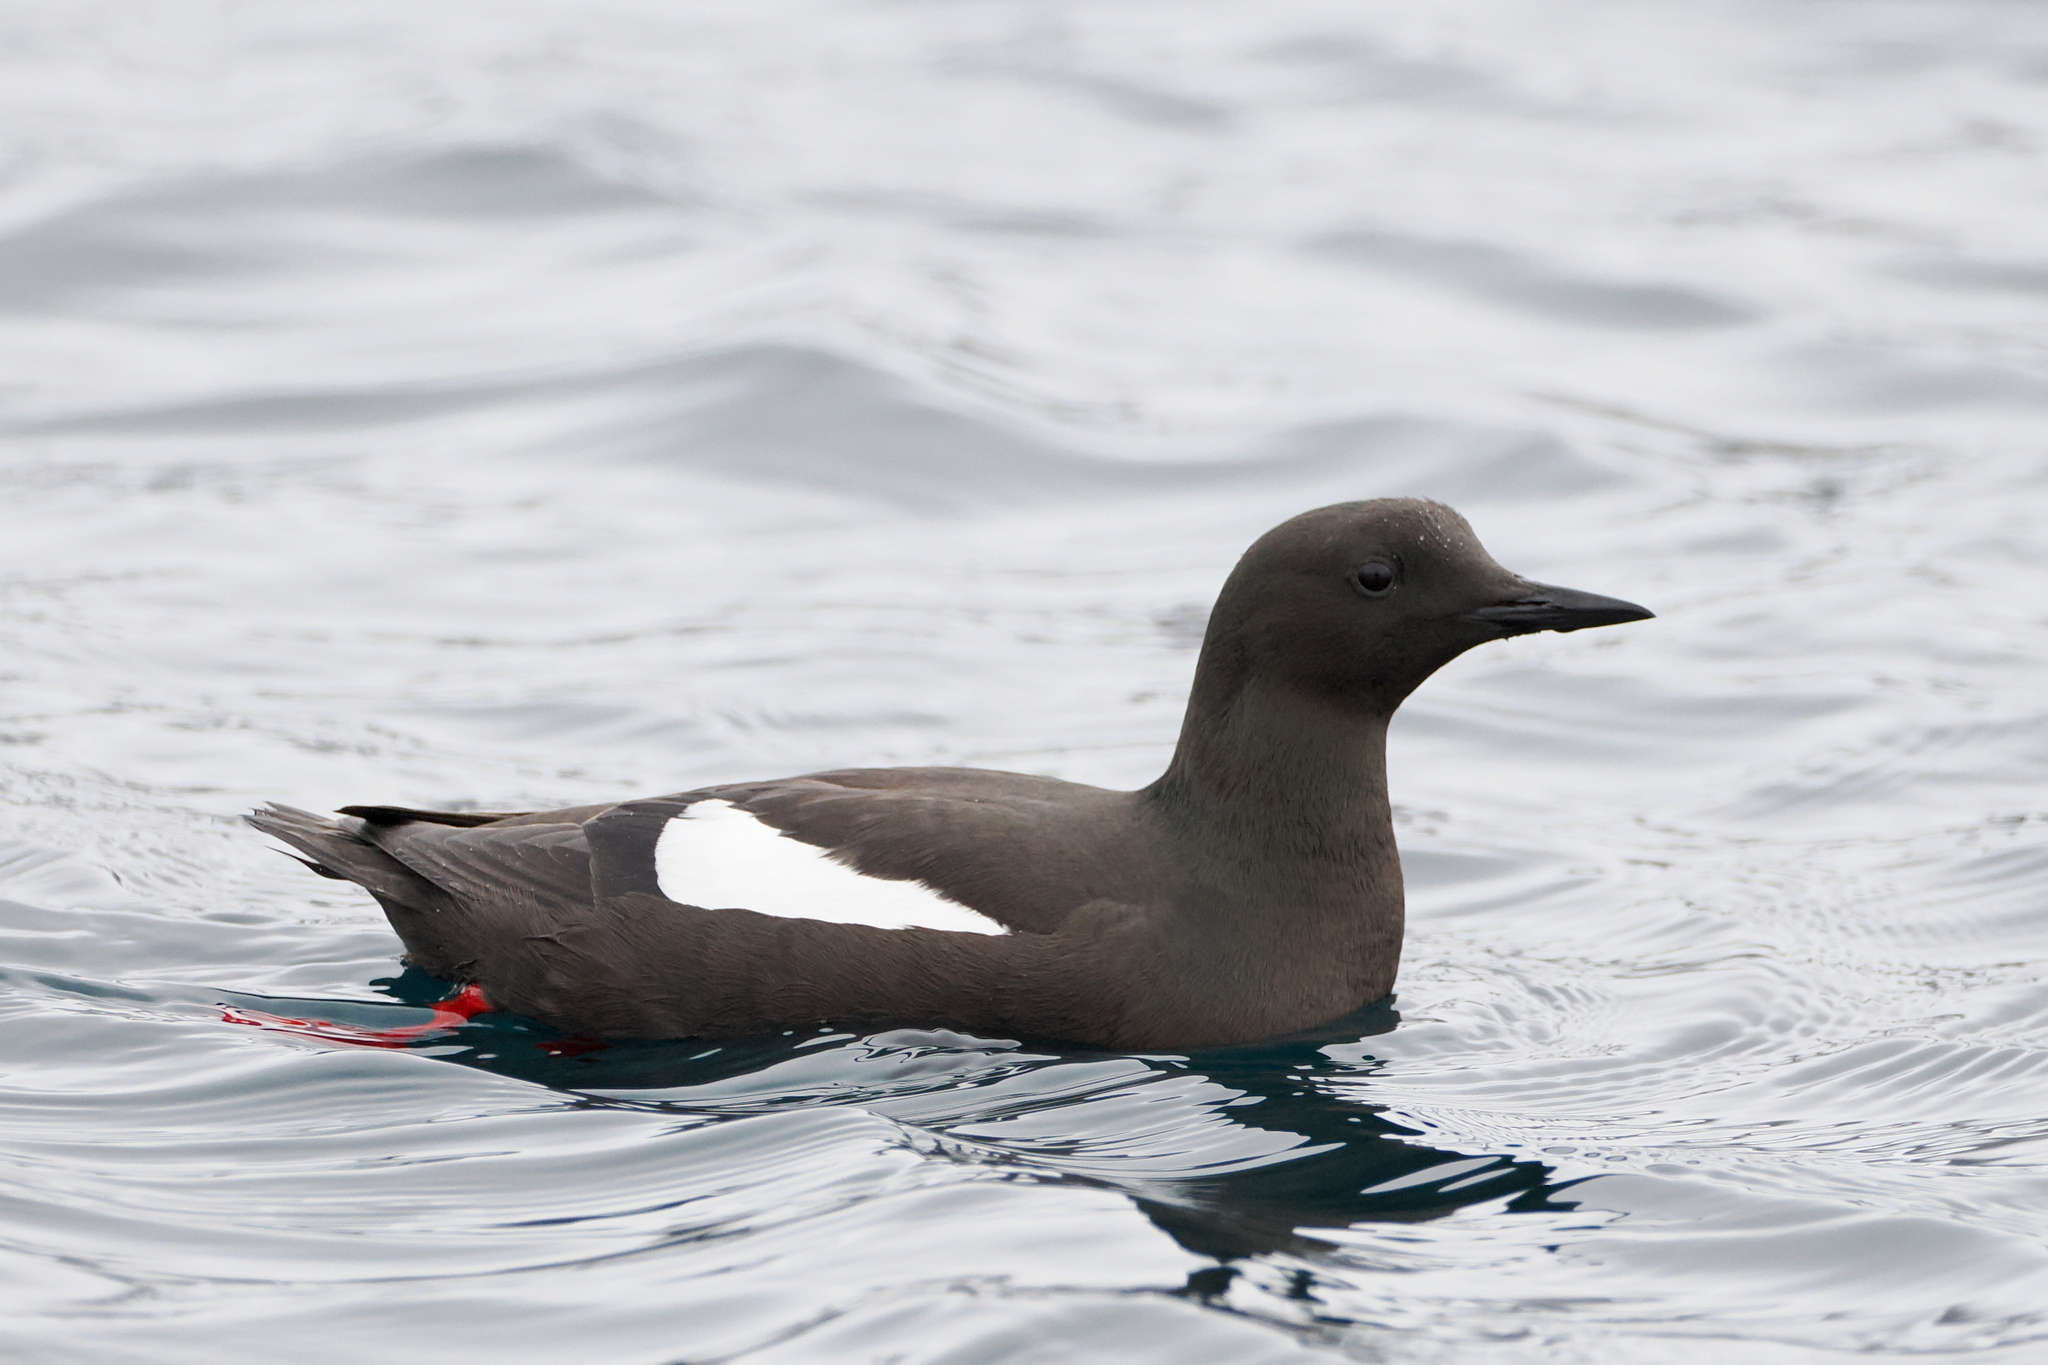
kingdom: Animalia
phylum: Chordata
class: Aves
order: Charadriiformes
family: Alcidae
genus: Cepphus
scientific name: Cepphus grylle
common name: Black guillemot
